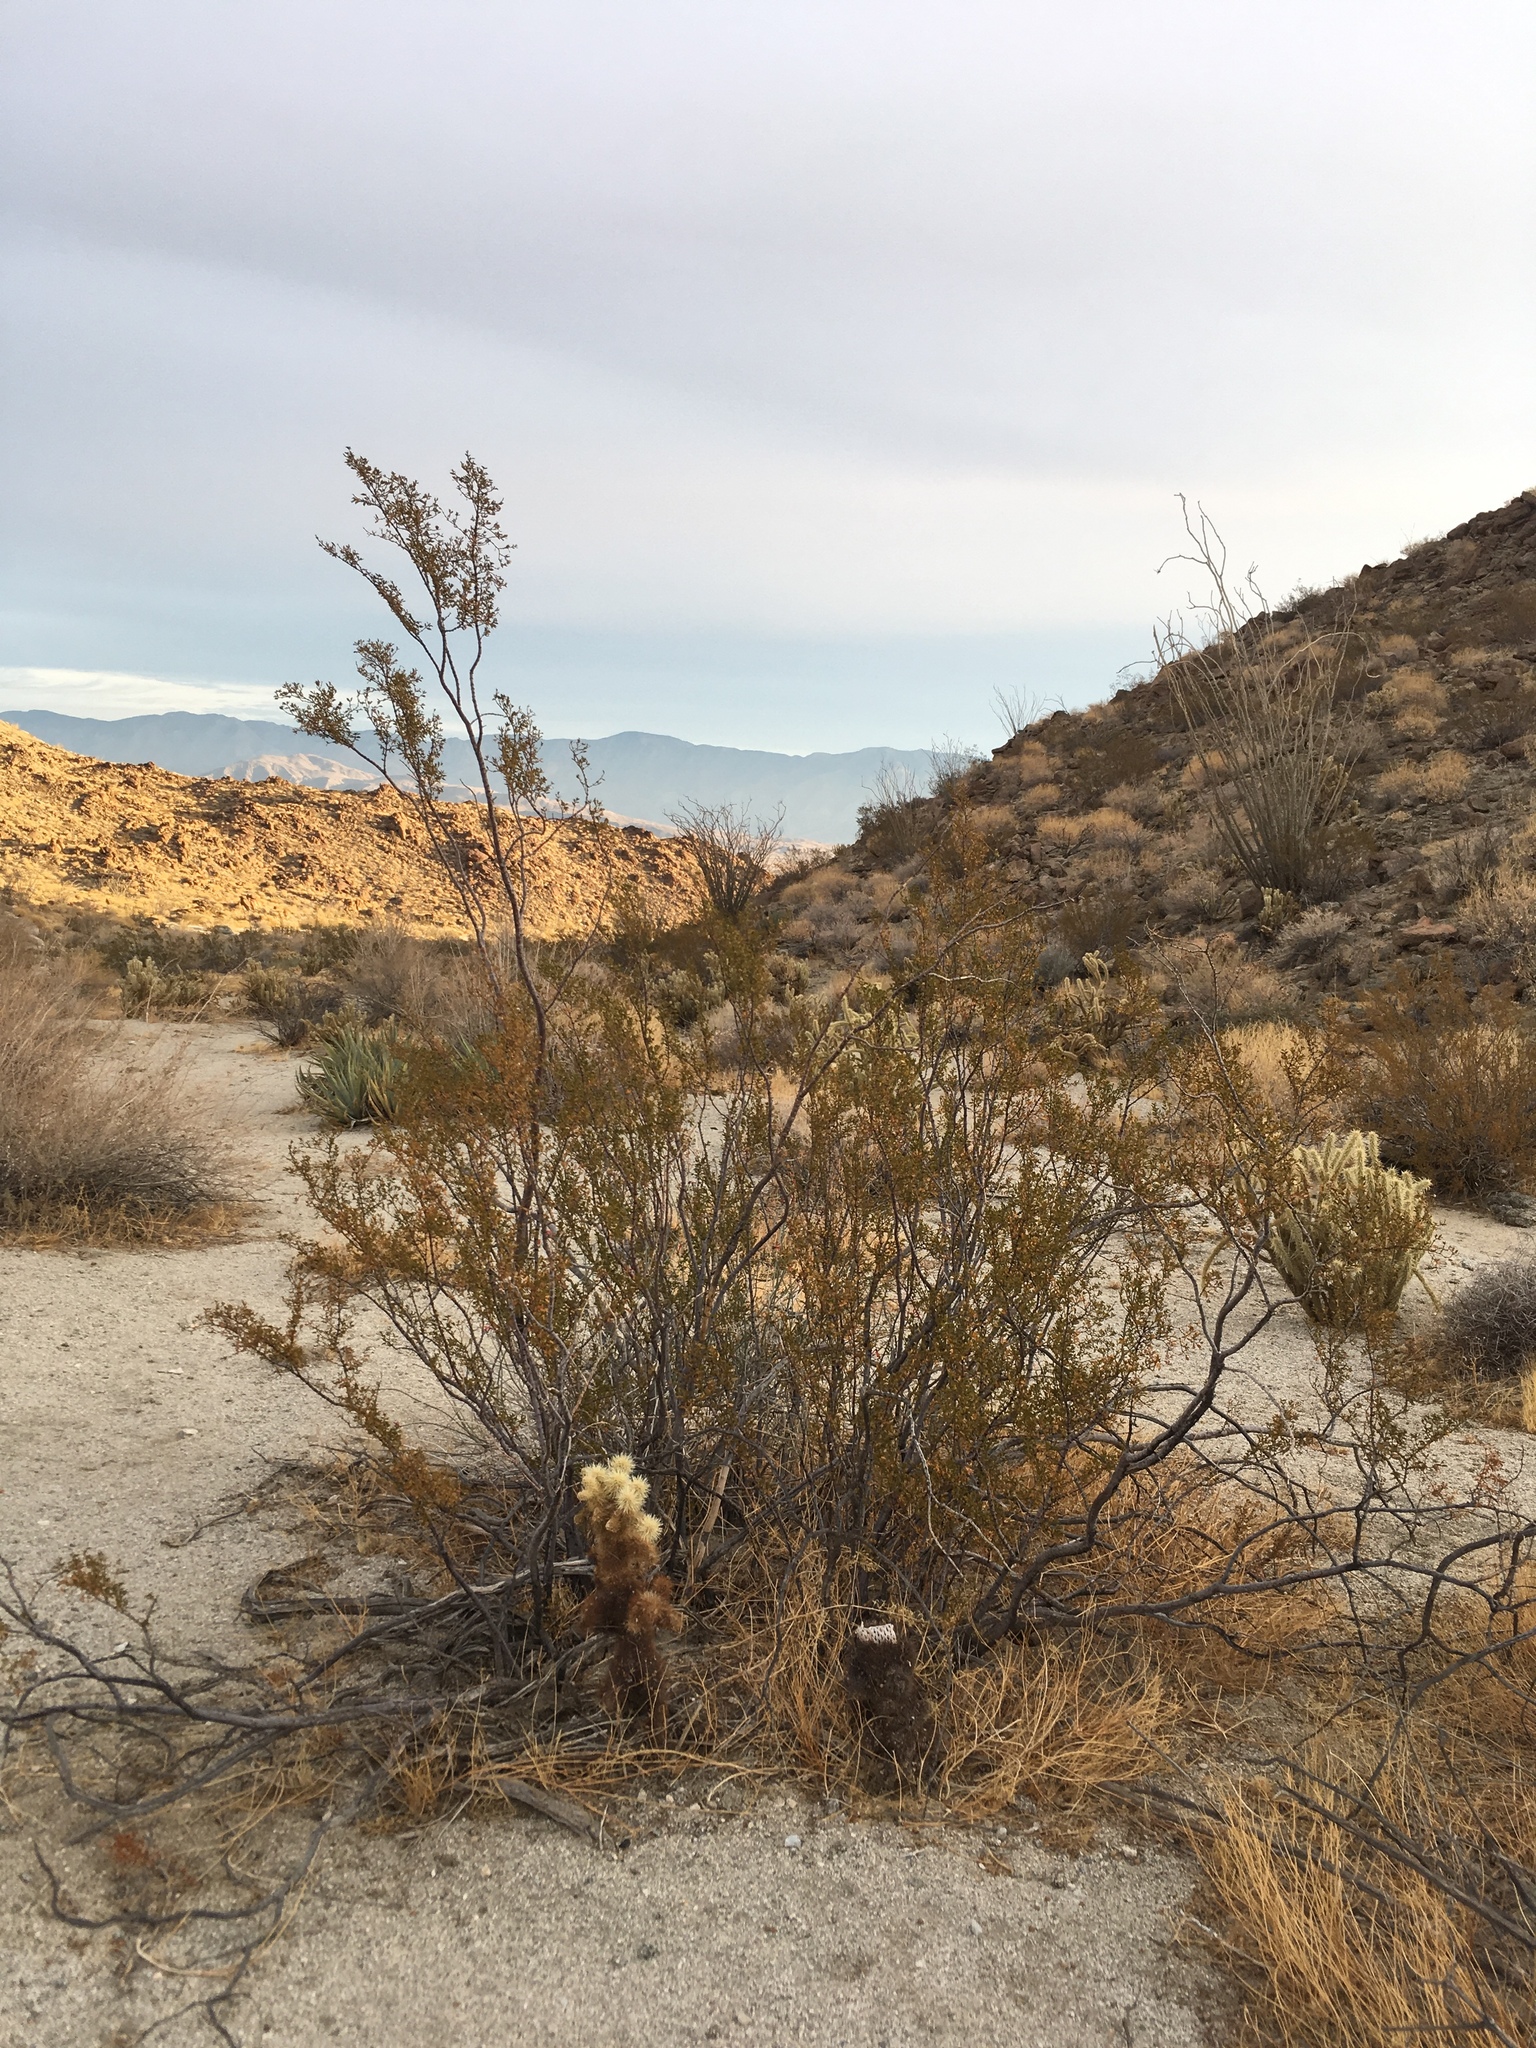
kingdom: Plantae
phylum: Tracheophyta
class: Magnoliopsida
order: Zygophyllales
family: Zygophyllaceae
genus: Larrea
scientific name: Larrea tridentata
